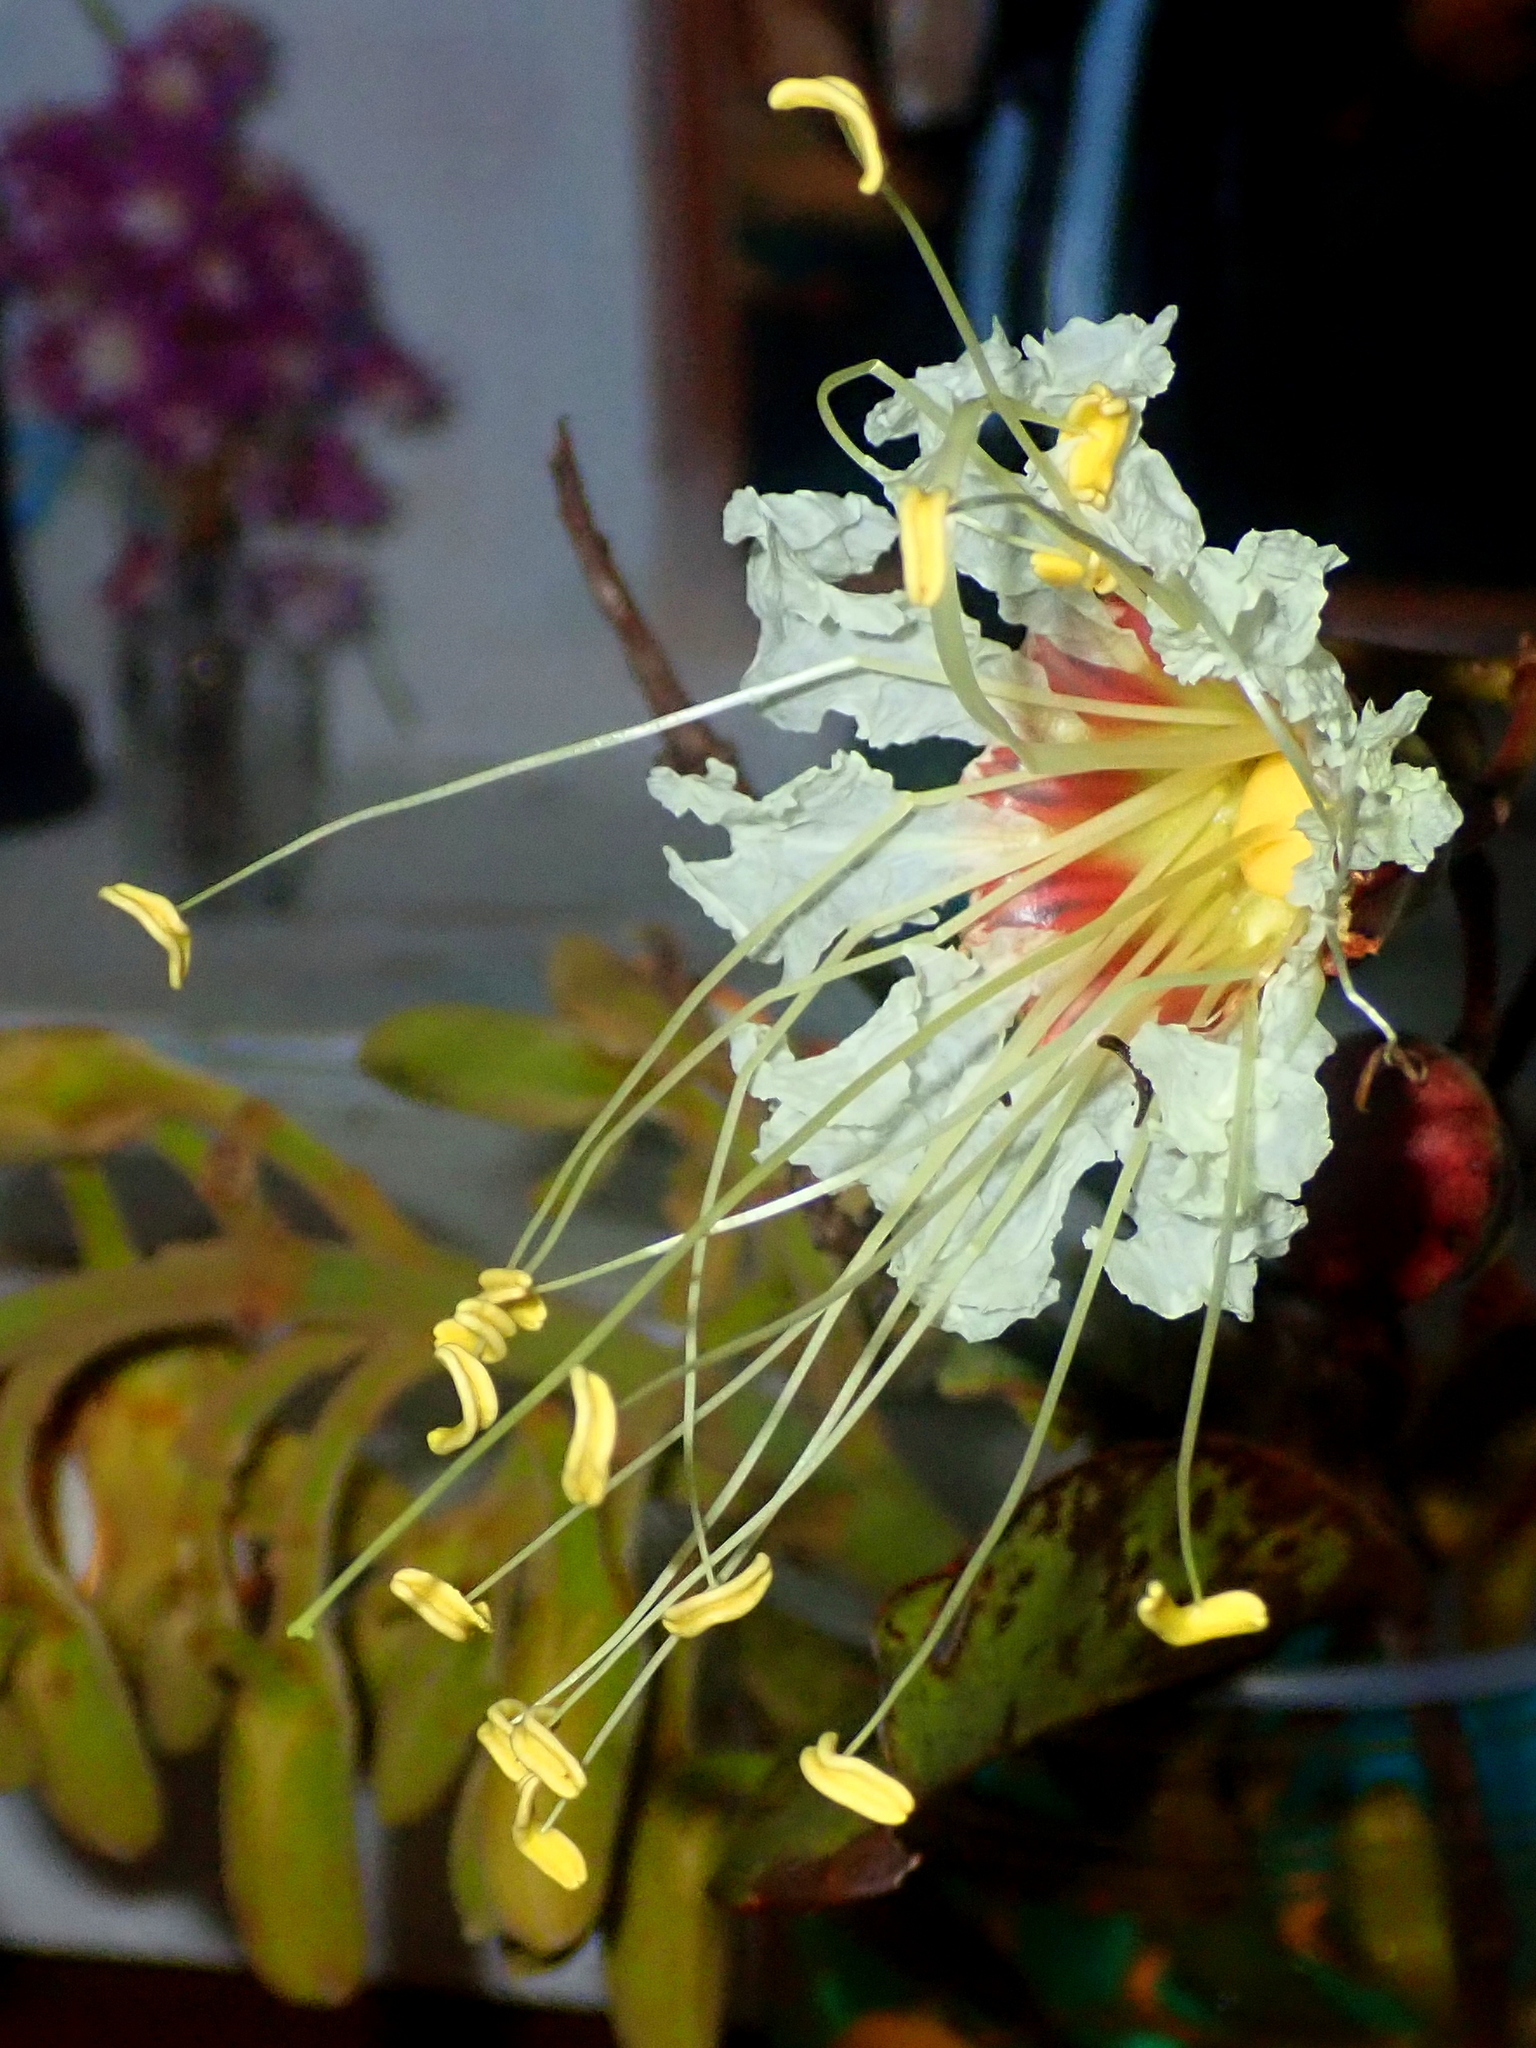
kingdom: Plantae
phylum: Tracheophyta
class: Magnoliopsida
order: Myrtales
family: Lythraceae
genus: Lafoensia
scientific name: Lafoensia pacari
